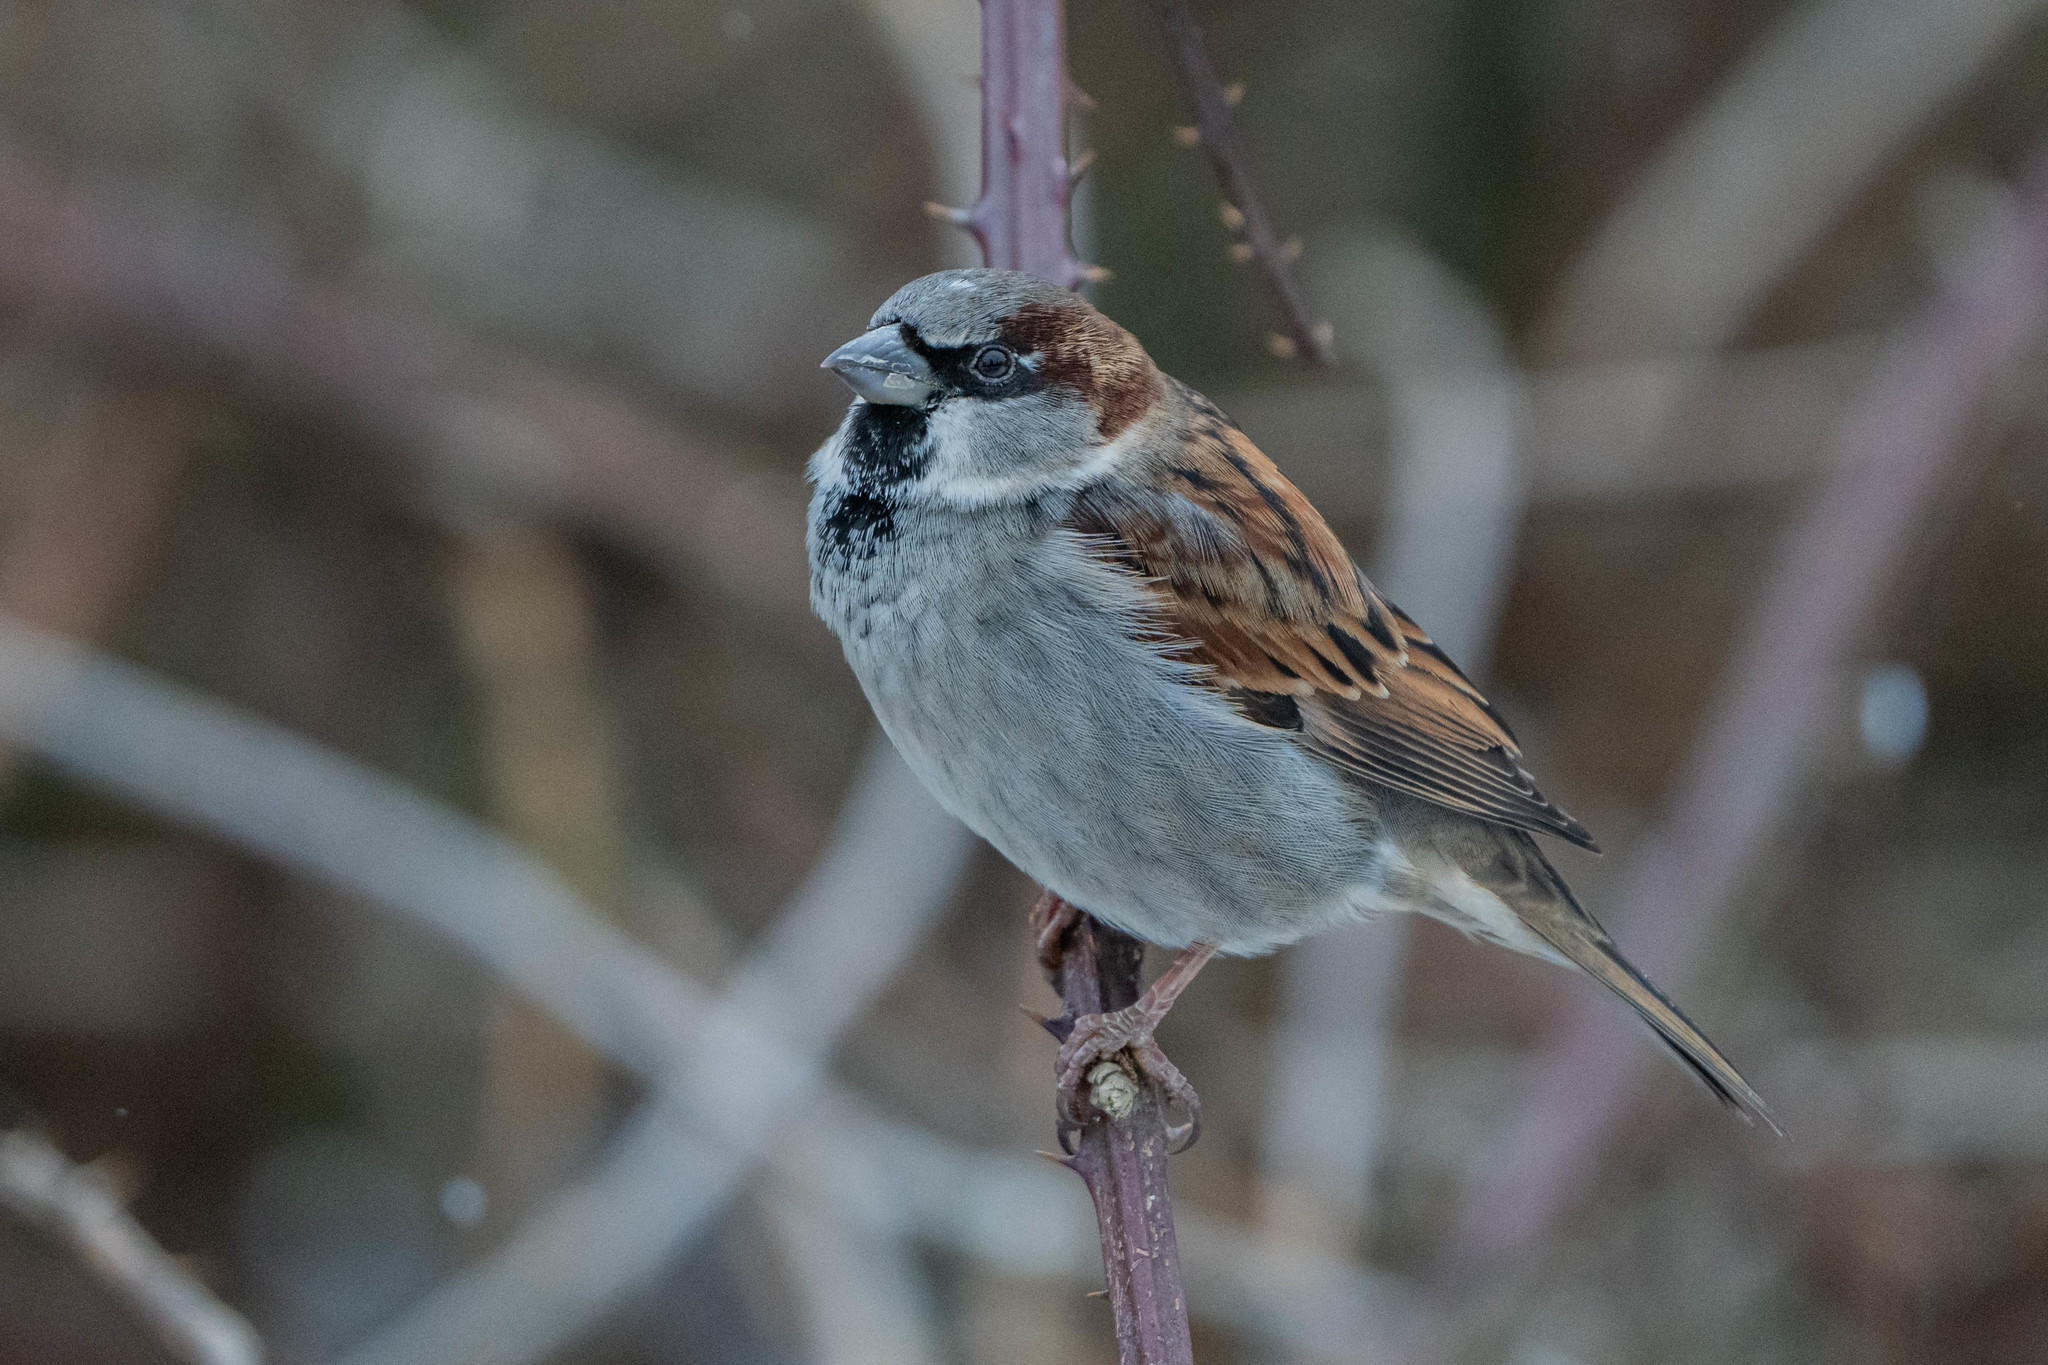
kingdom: Animalia
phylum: Chordata
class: Aves
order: Passeriformes
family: Passeridae
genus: Passer
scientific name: Passer domesticus
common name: House sparrow
